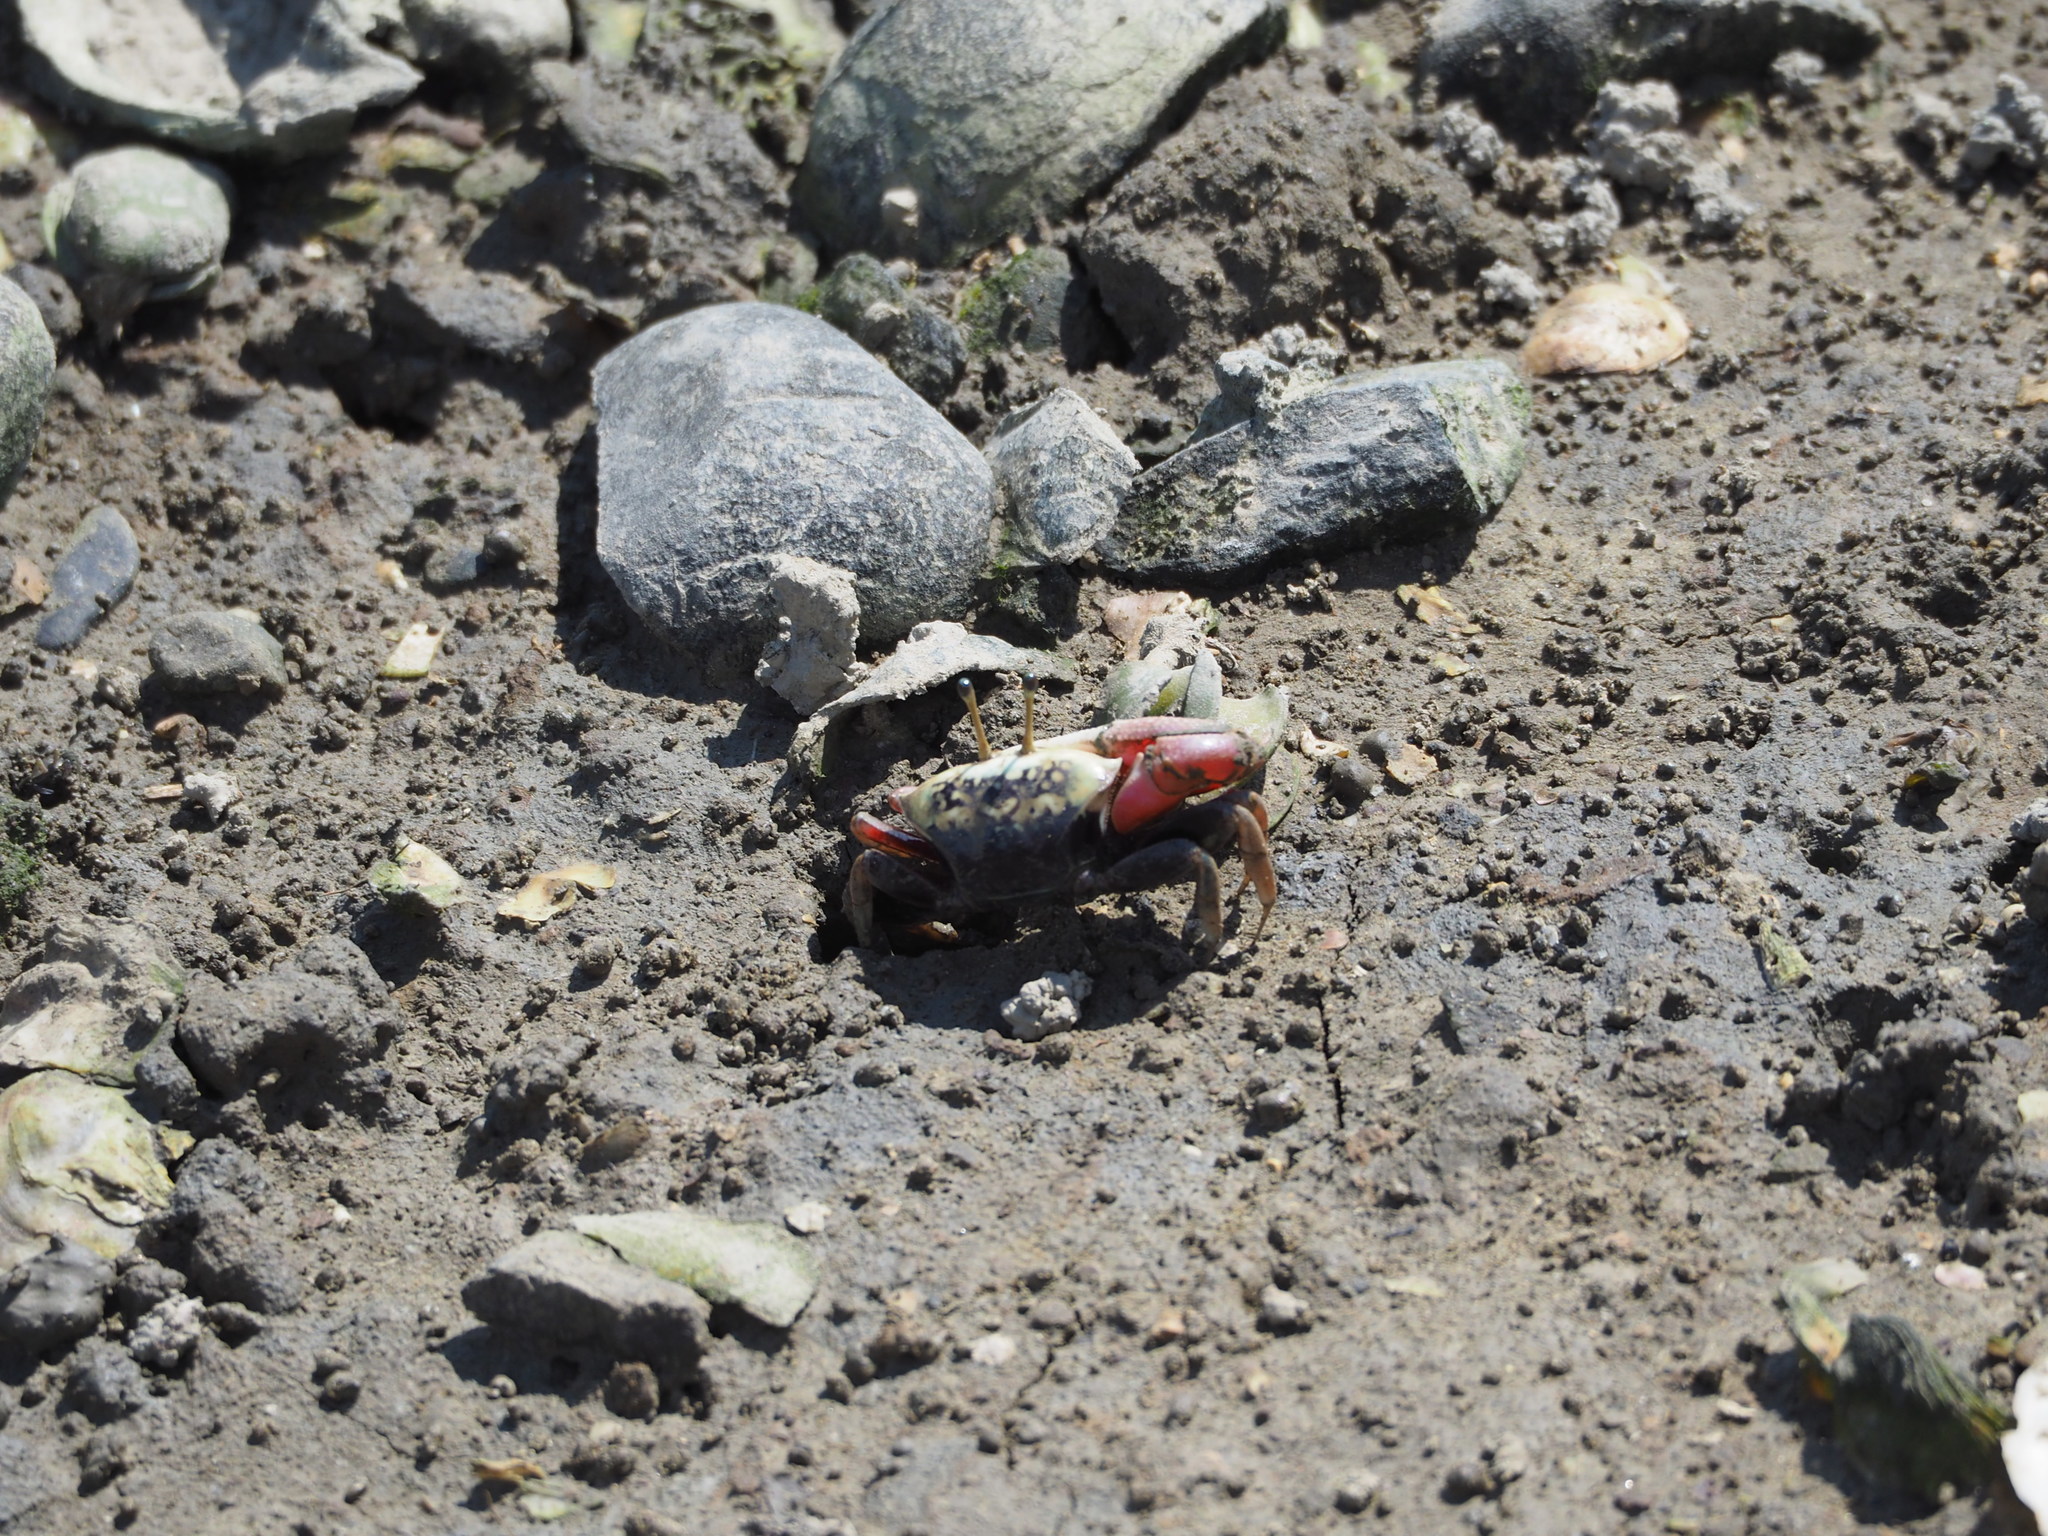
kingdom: Animalia
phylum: Arthropoda
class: Malacostraca
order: Decapoda
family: Ocypodidae
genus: Tubuca
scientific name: Tubuca arcuata
